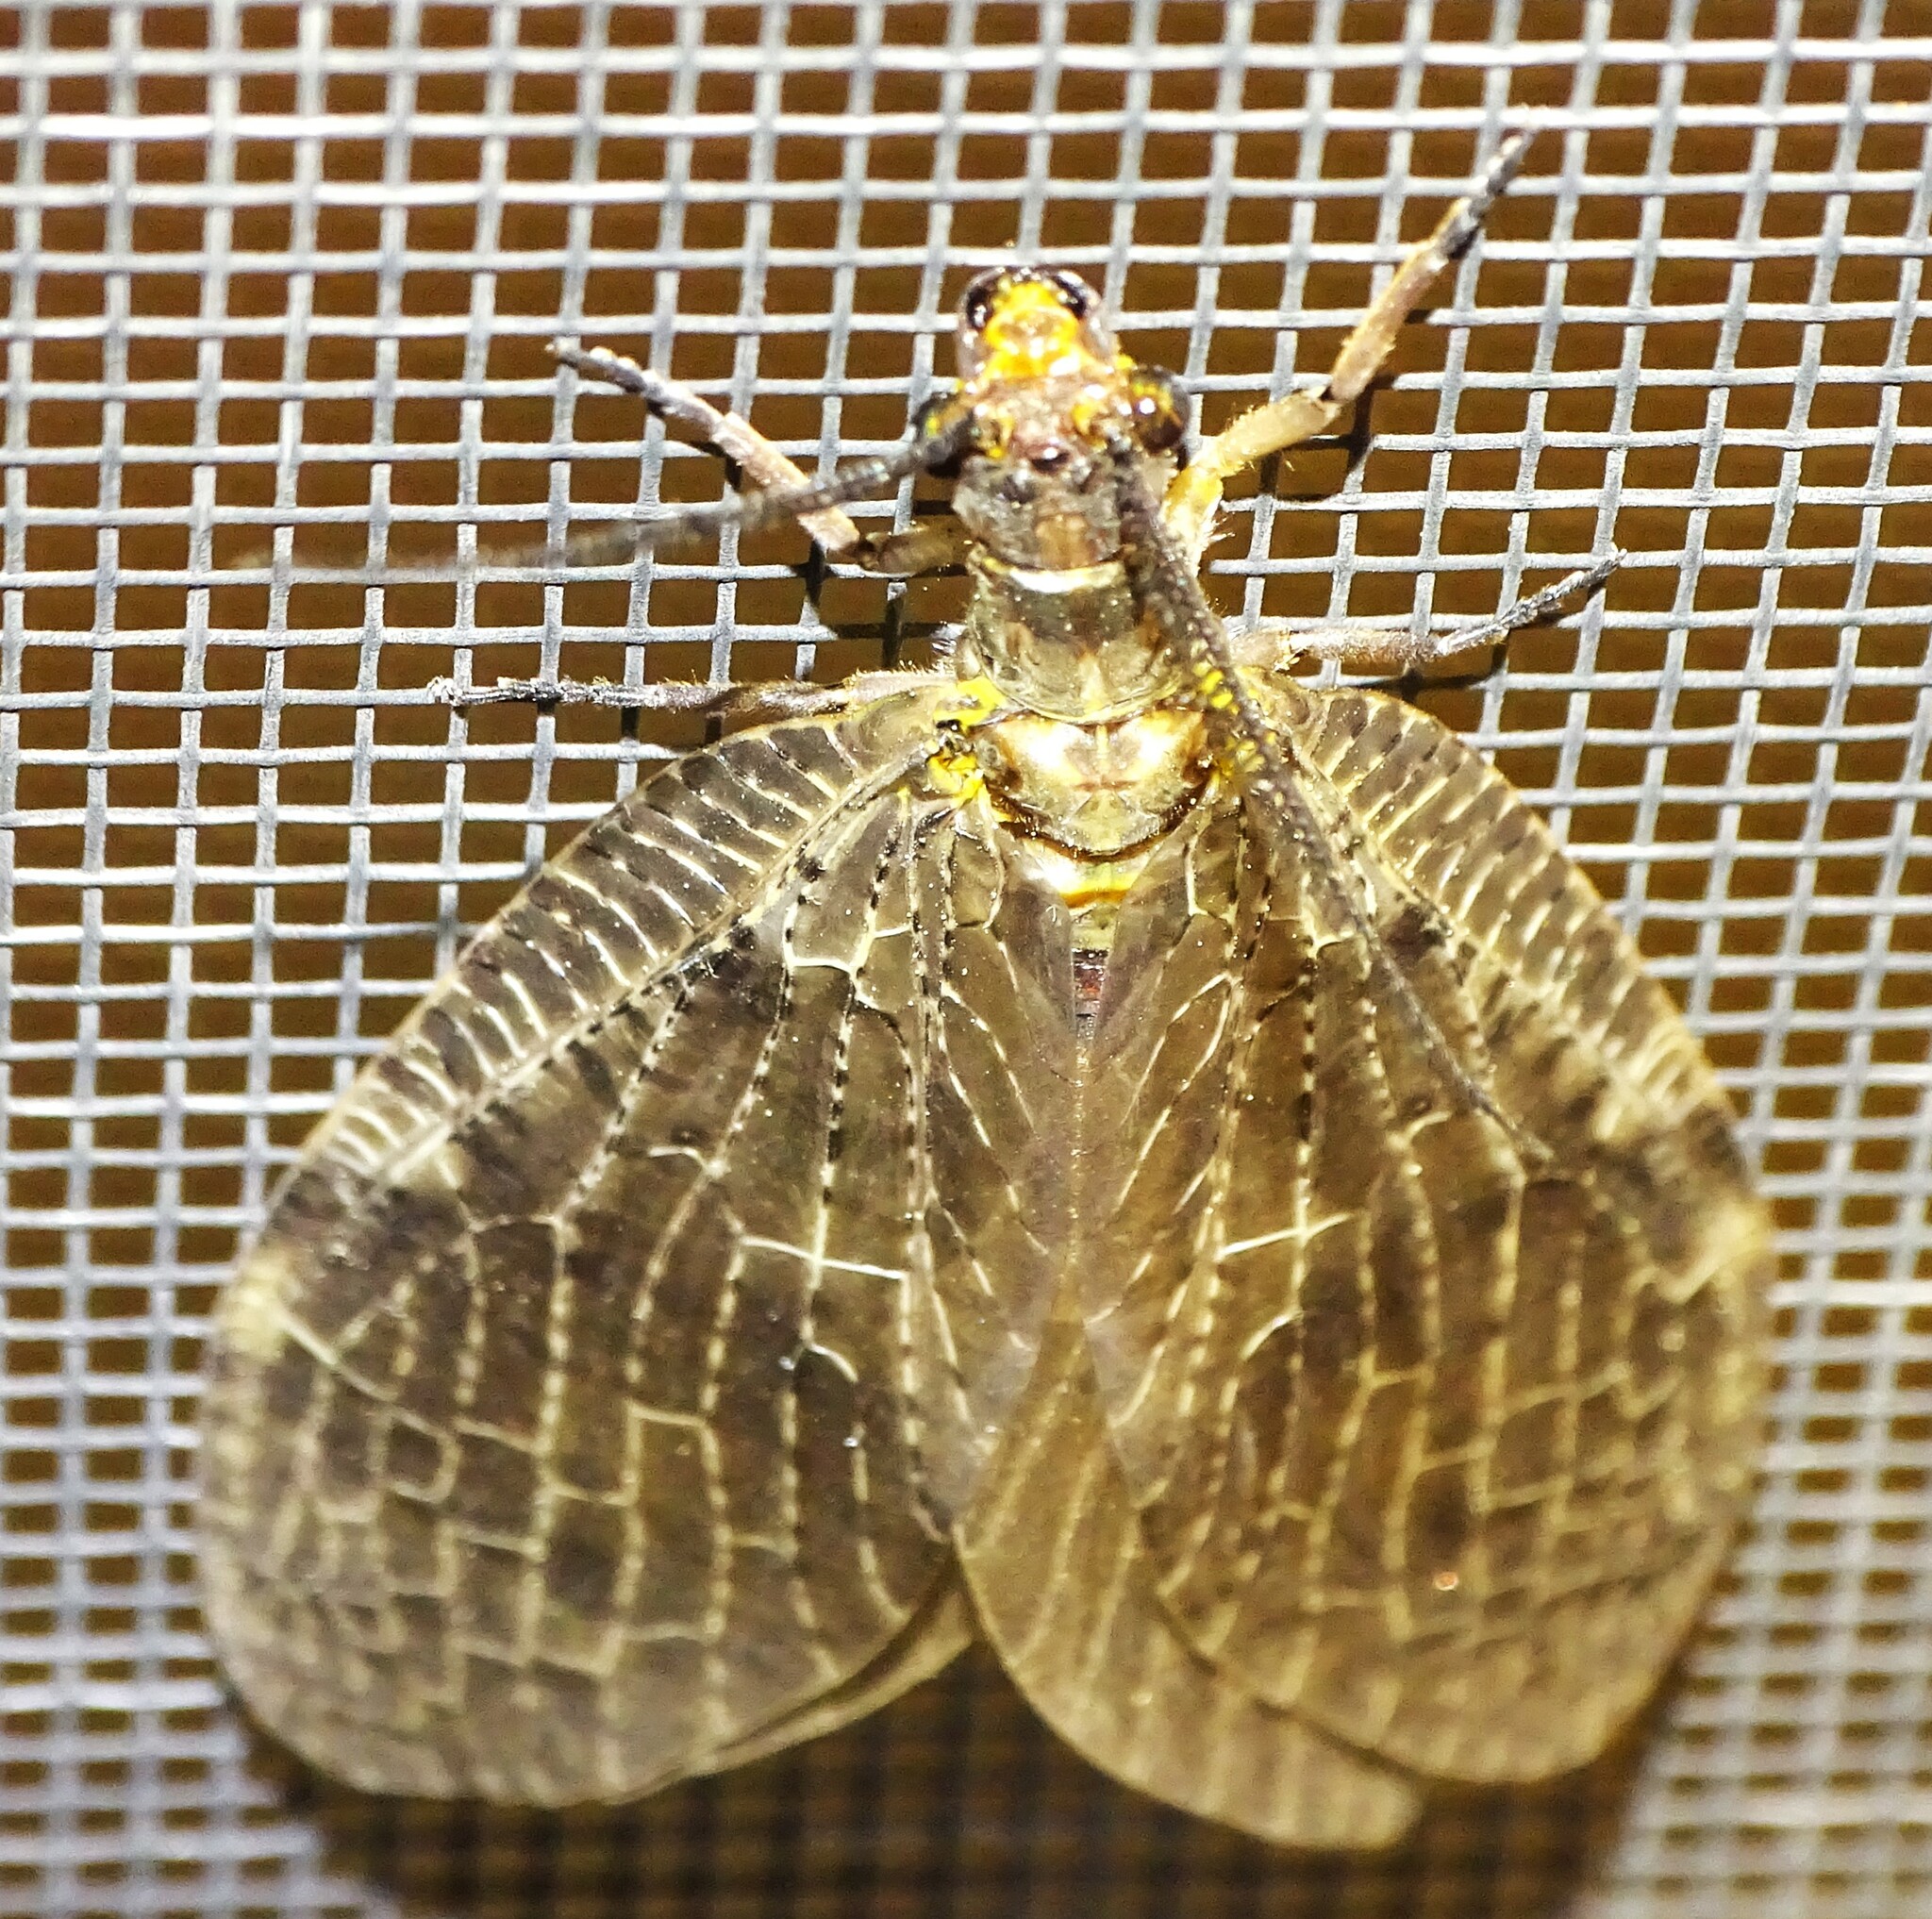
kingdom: Animalia
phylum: Arthropoda
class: Insecta
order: Megaloptera
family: Corydalidae
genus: Chauliodes
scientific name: Chauliodes pectinicornis
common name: Summer fishfly
